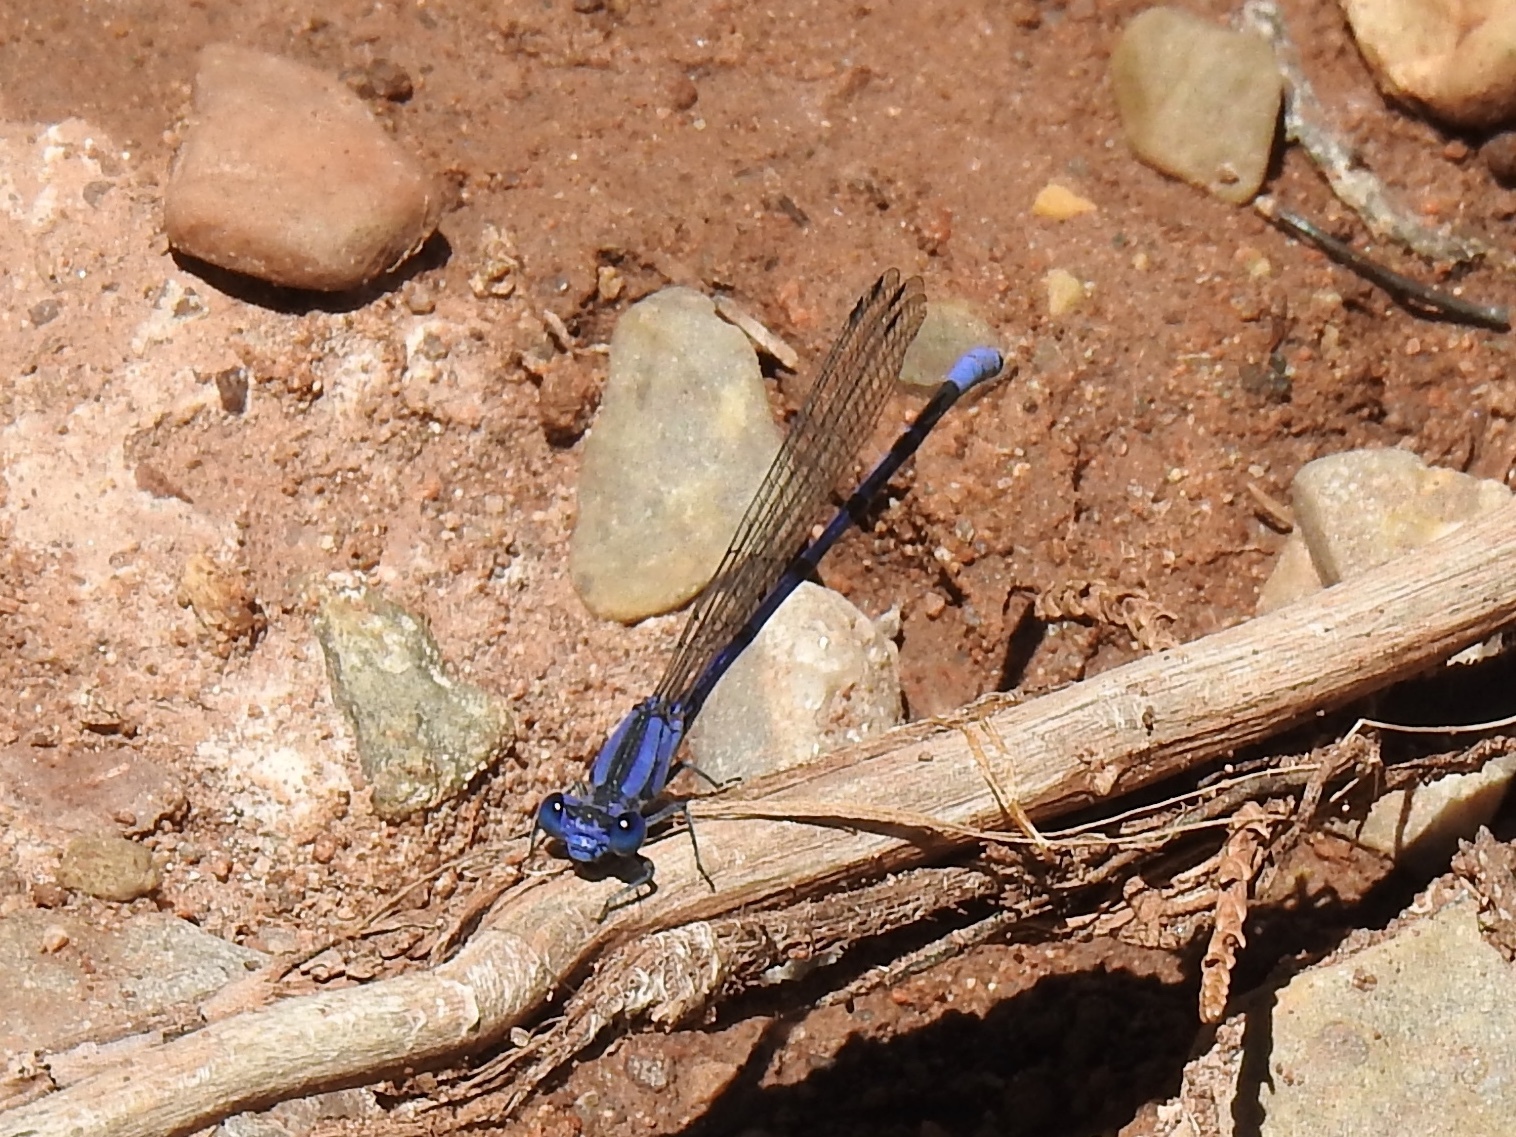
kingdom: Animalia
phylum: Arthropoda
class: Insecta
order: Odonata
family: Coenagrionidae
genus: Argia
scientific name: Argia vivida
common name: Vivid dancer
